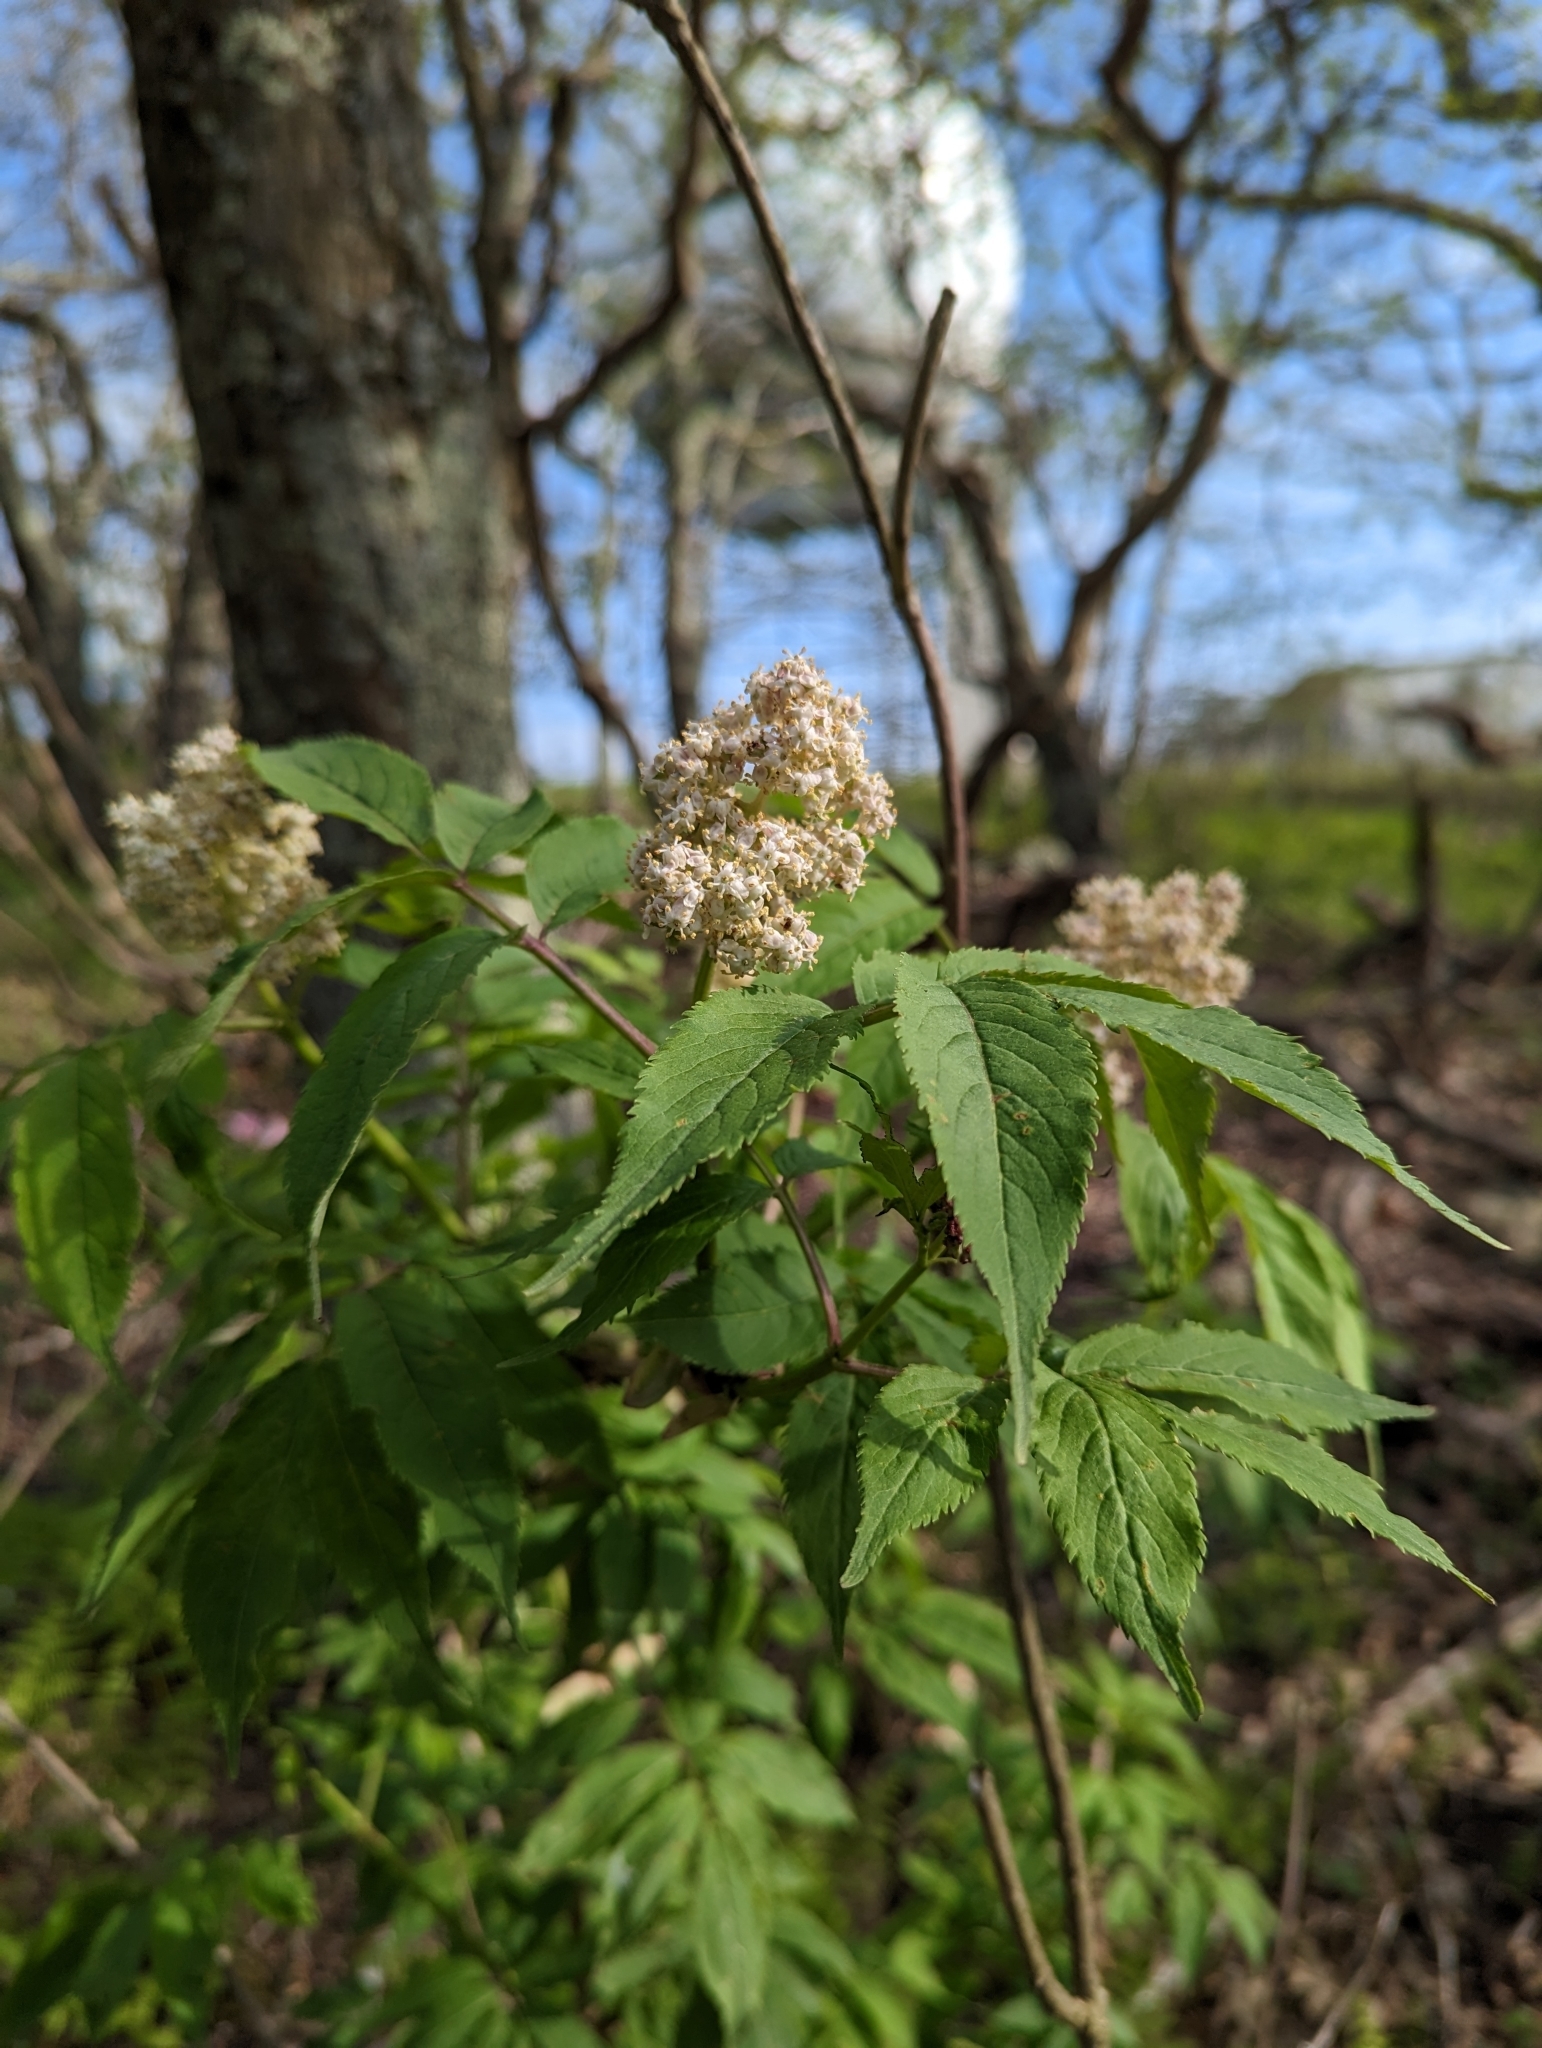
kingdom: Plantae
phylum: Tracheophyta
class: Magnoliopsida
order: Dipsacales
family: Viburnaceae
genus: Sambucus
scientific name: Sambucus racemosa
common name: Red-berried elder
